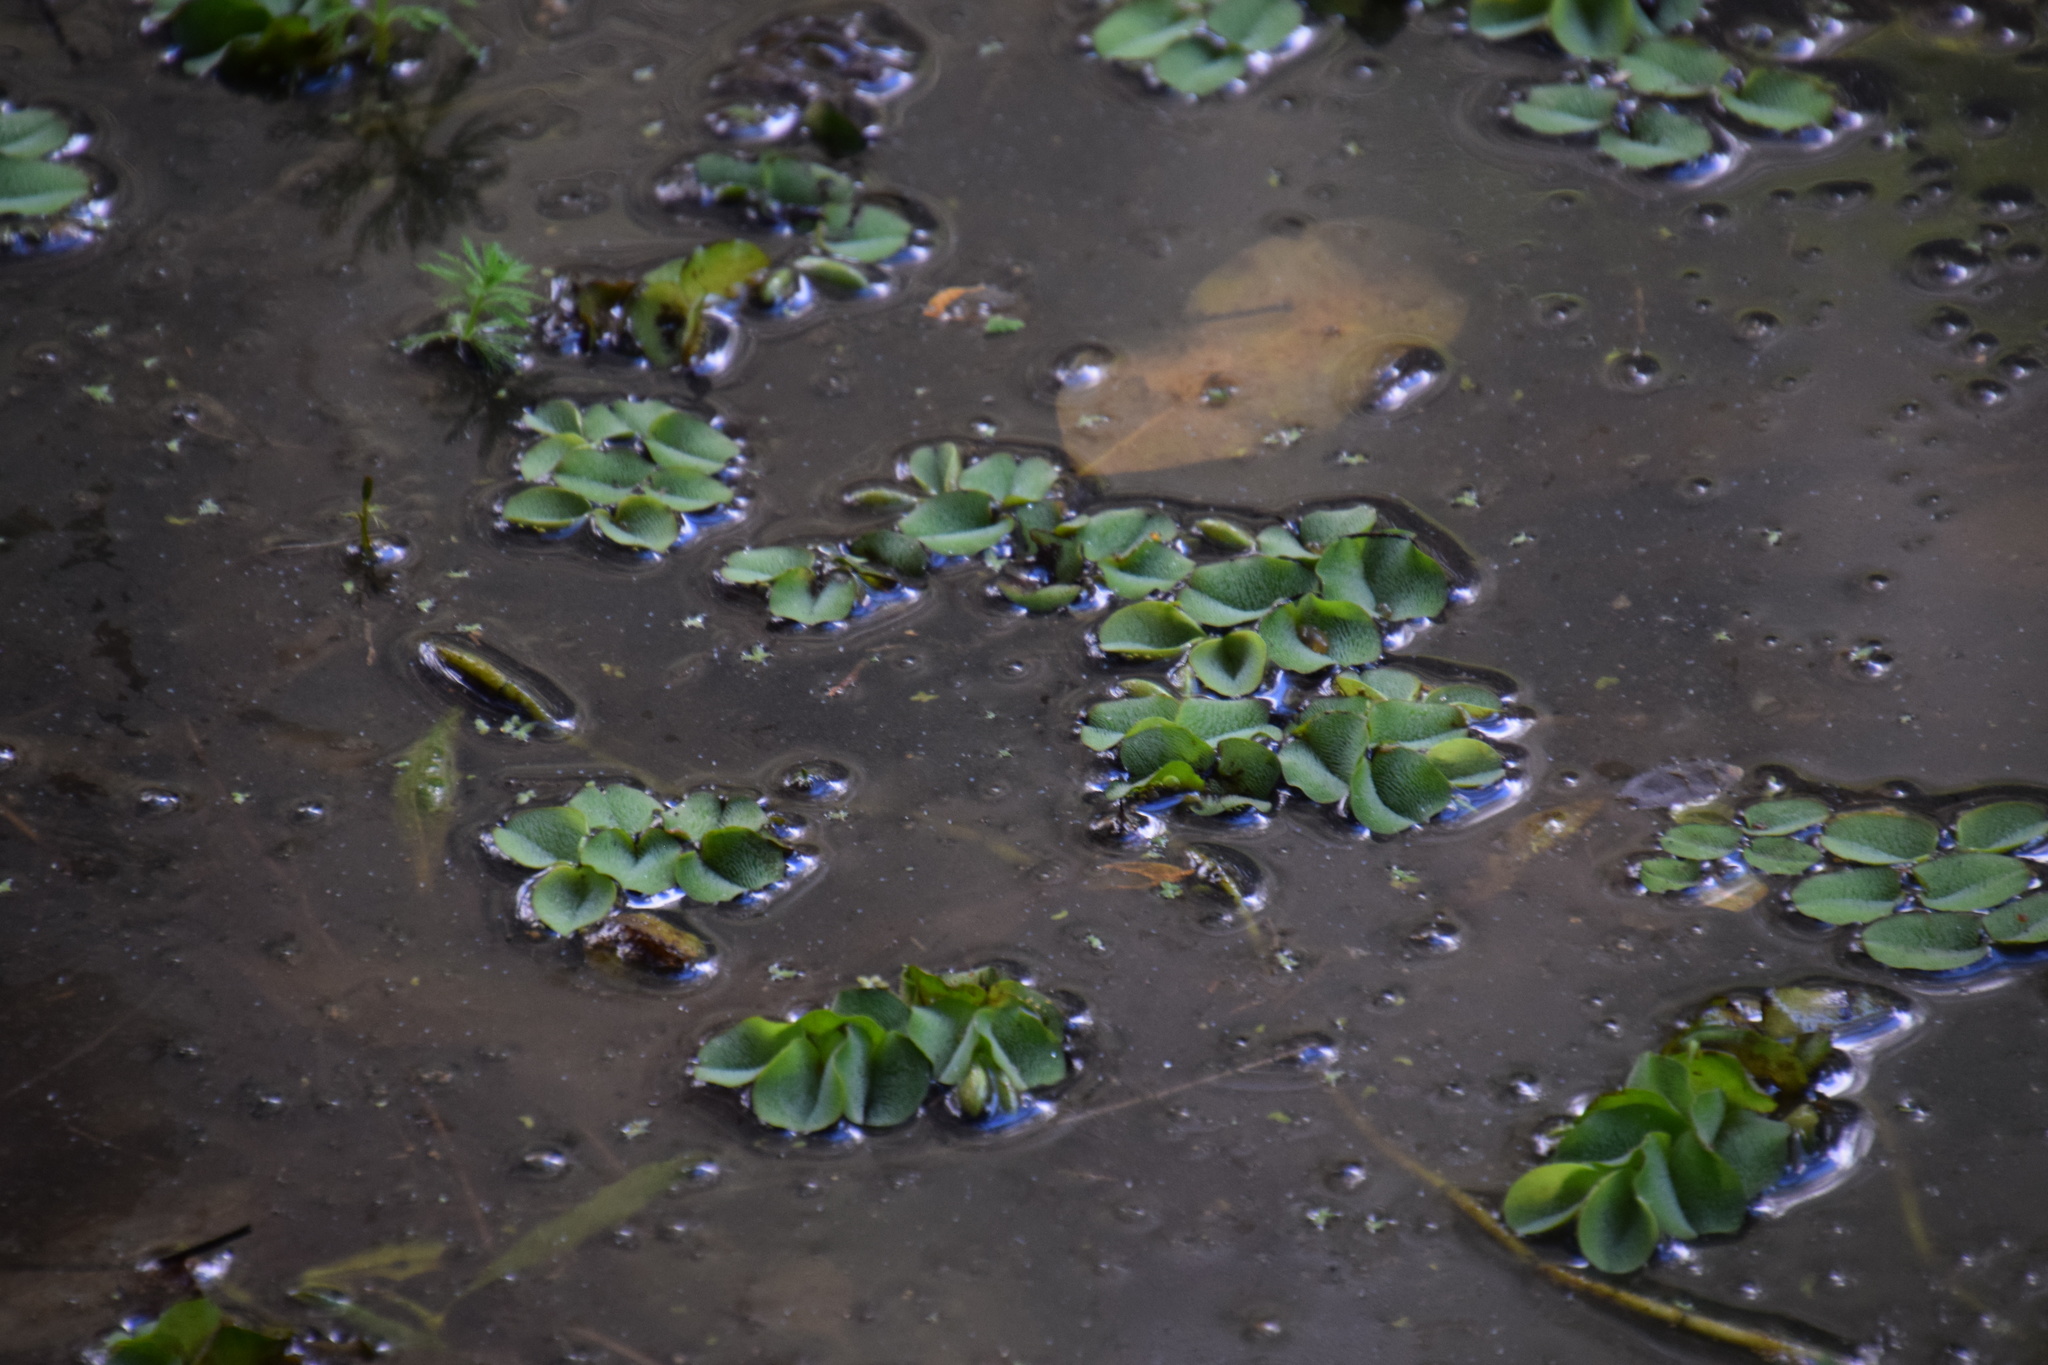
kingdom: Plantae
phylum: Tracheophyta
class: Polypodiopsida
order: Salviniales
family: Salviniaceae
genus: Salvinia
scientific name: Salvinia molesta
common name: Kariba weed
